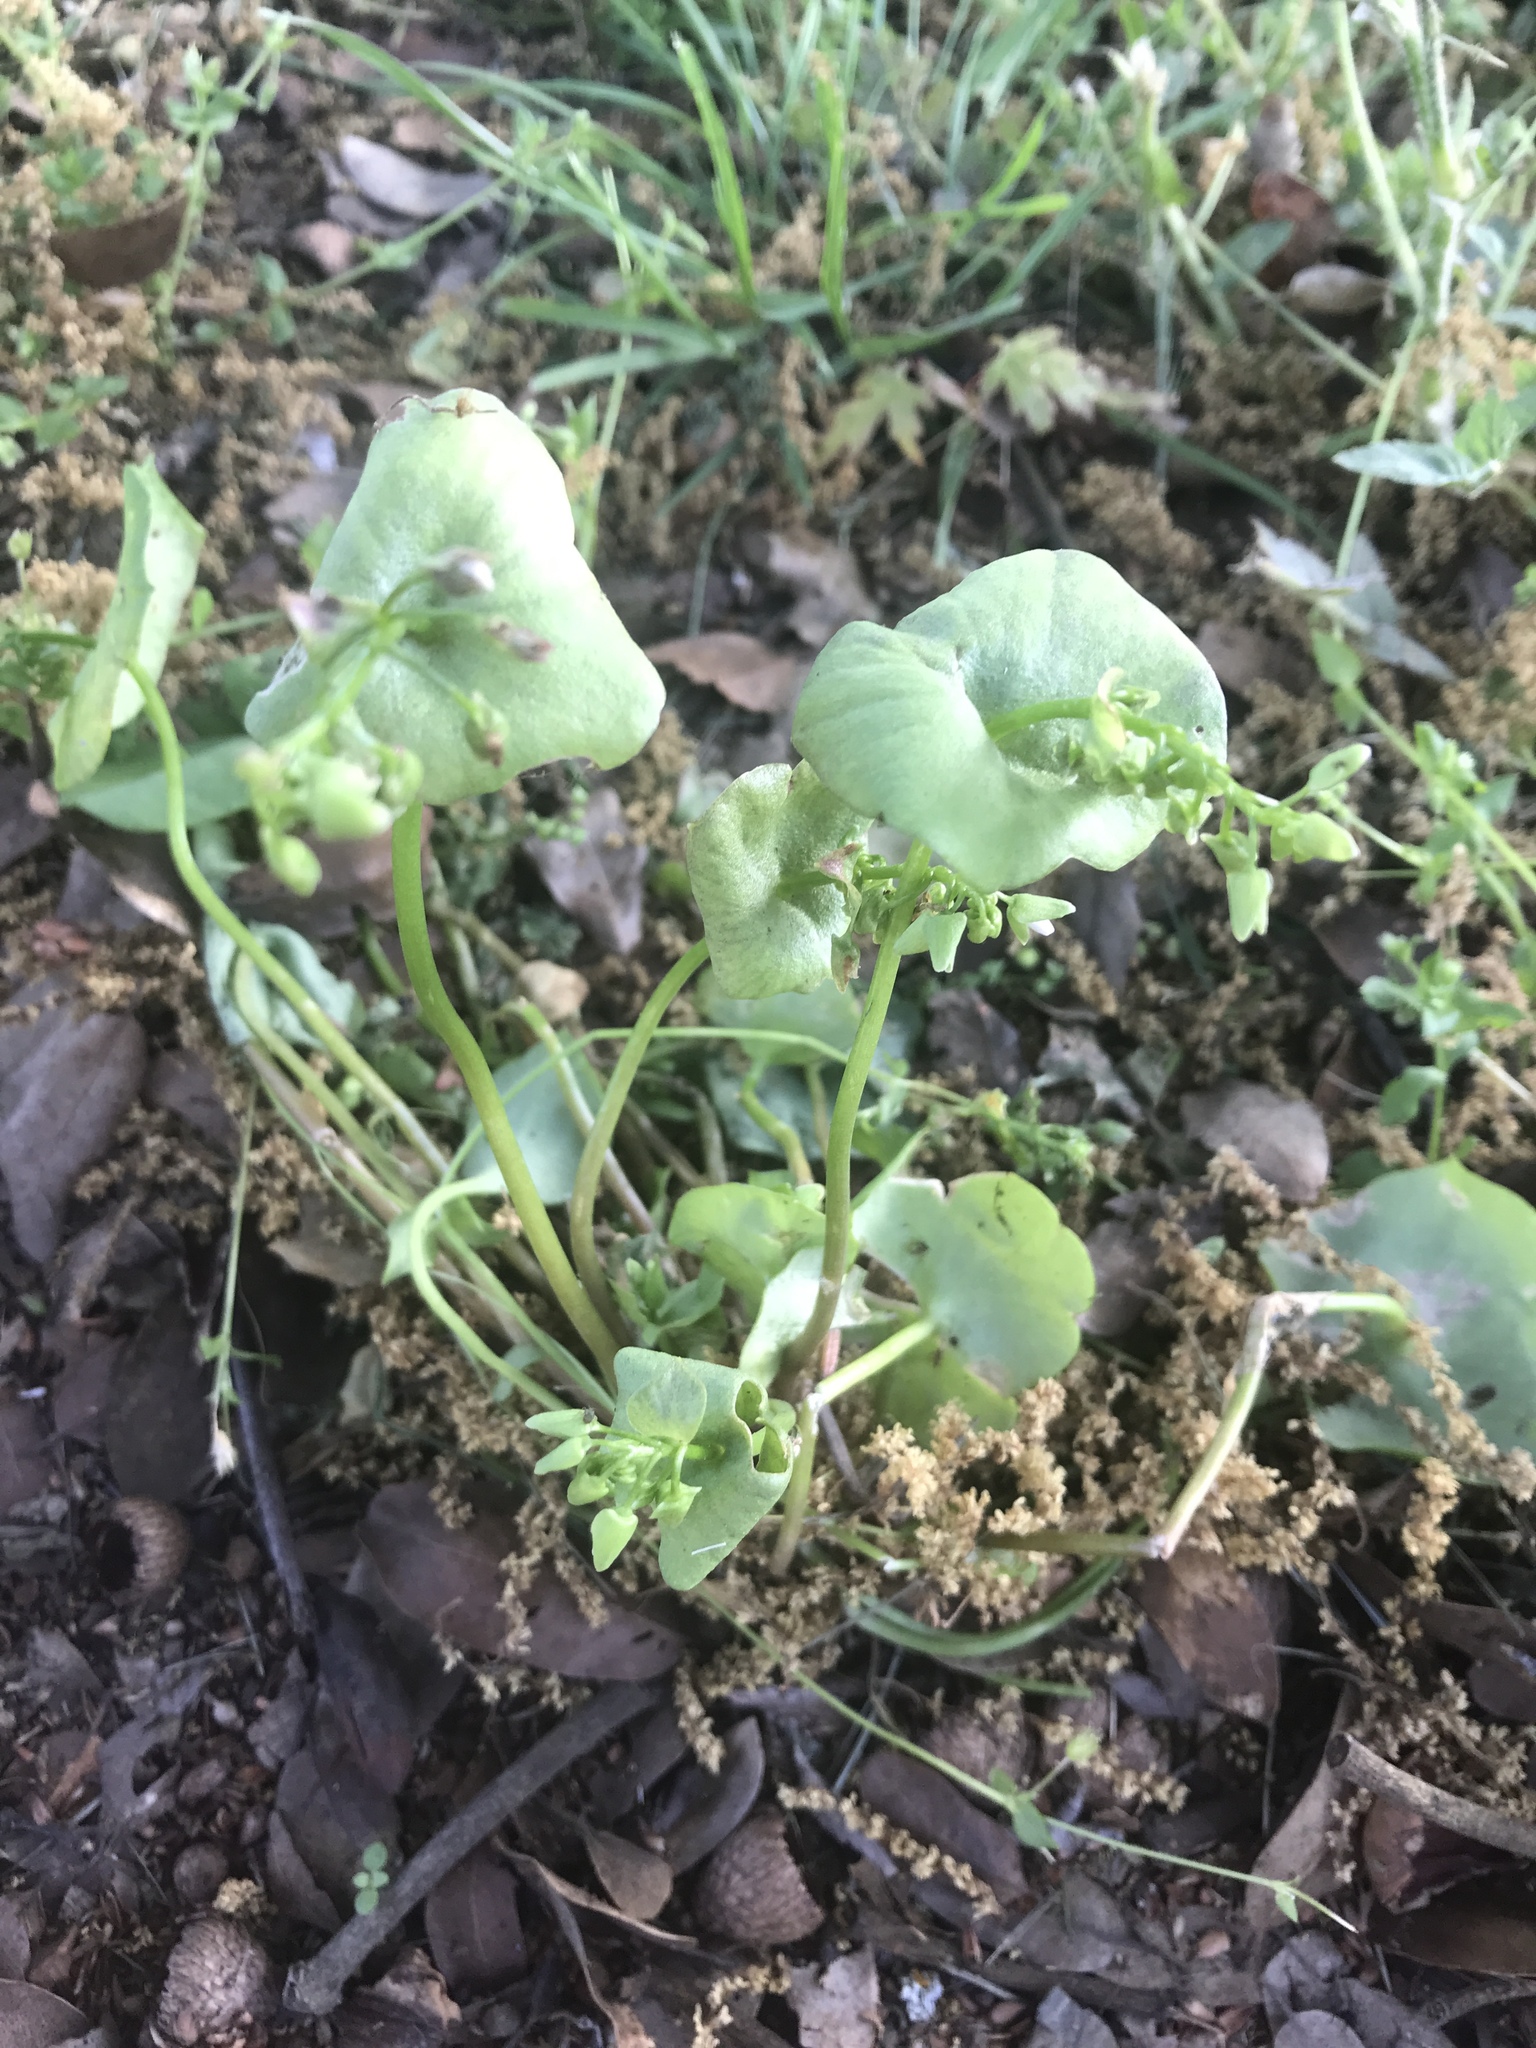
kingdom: Plantae
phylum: Tracheophyta
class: Magnoliopsida
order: Caryophyllales
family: Montiaceae
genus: Claytonia
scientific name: Claytonia perfoliata
